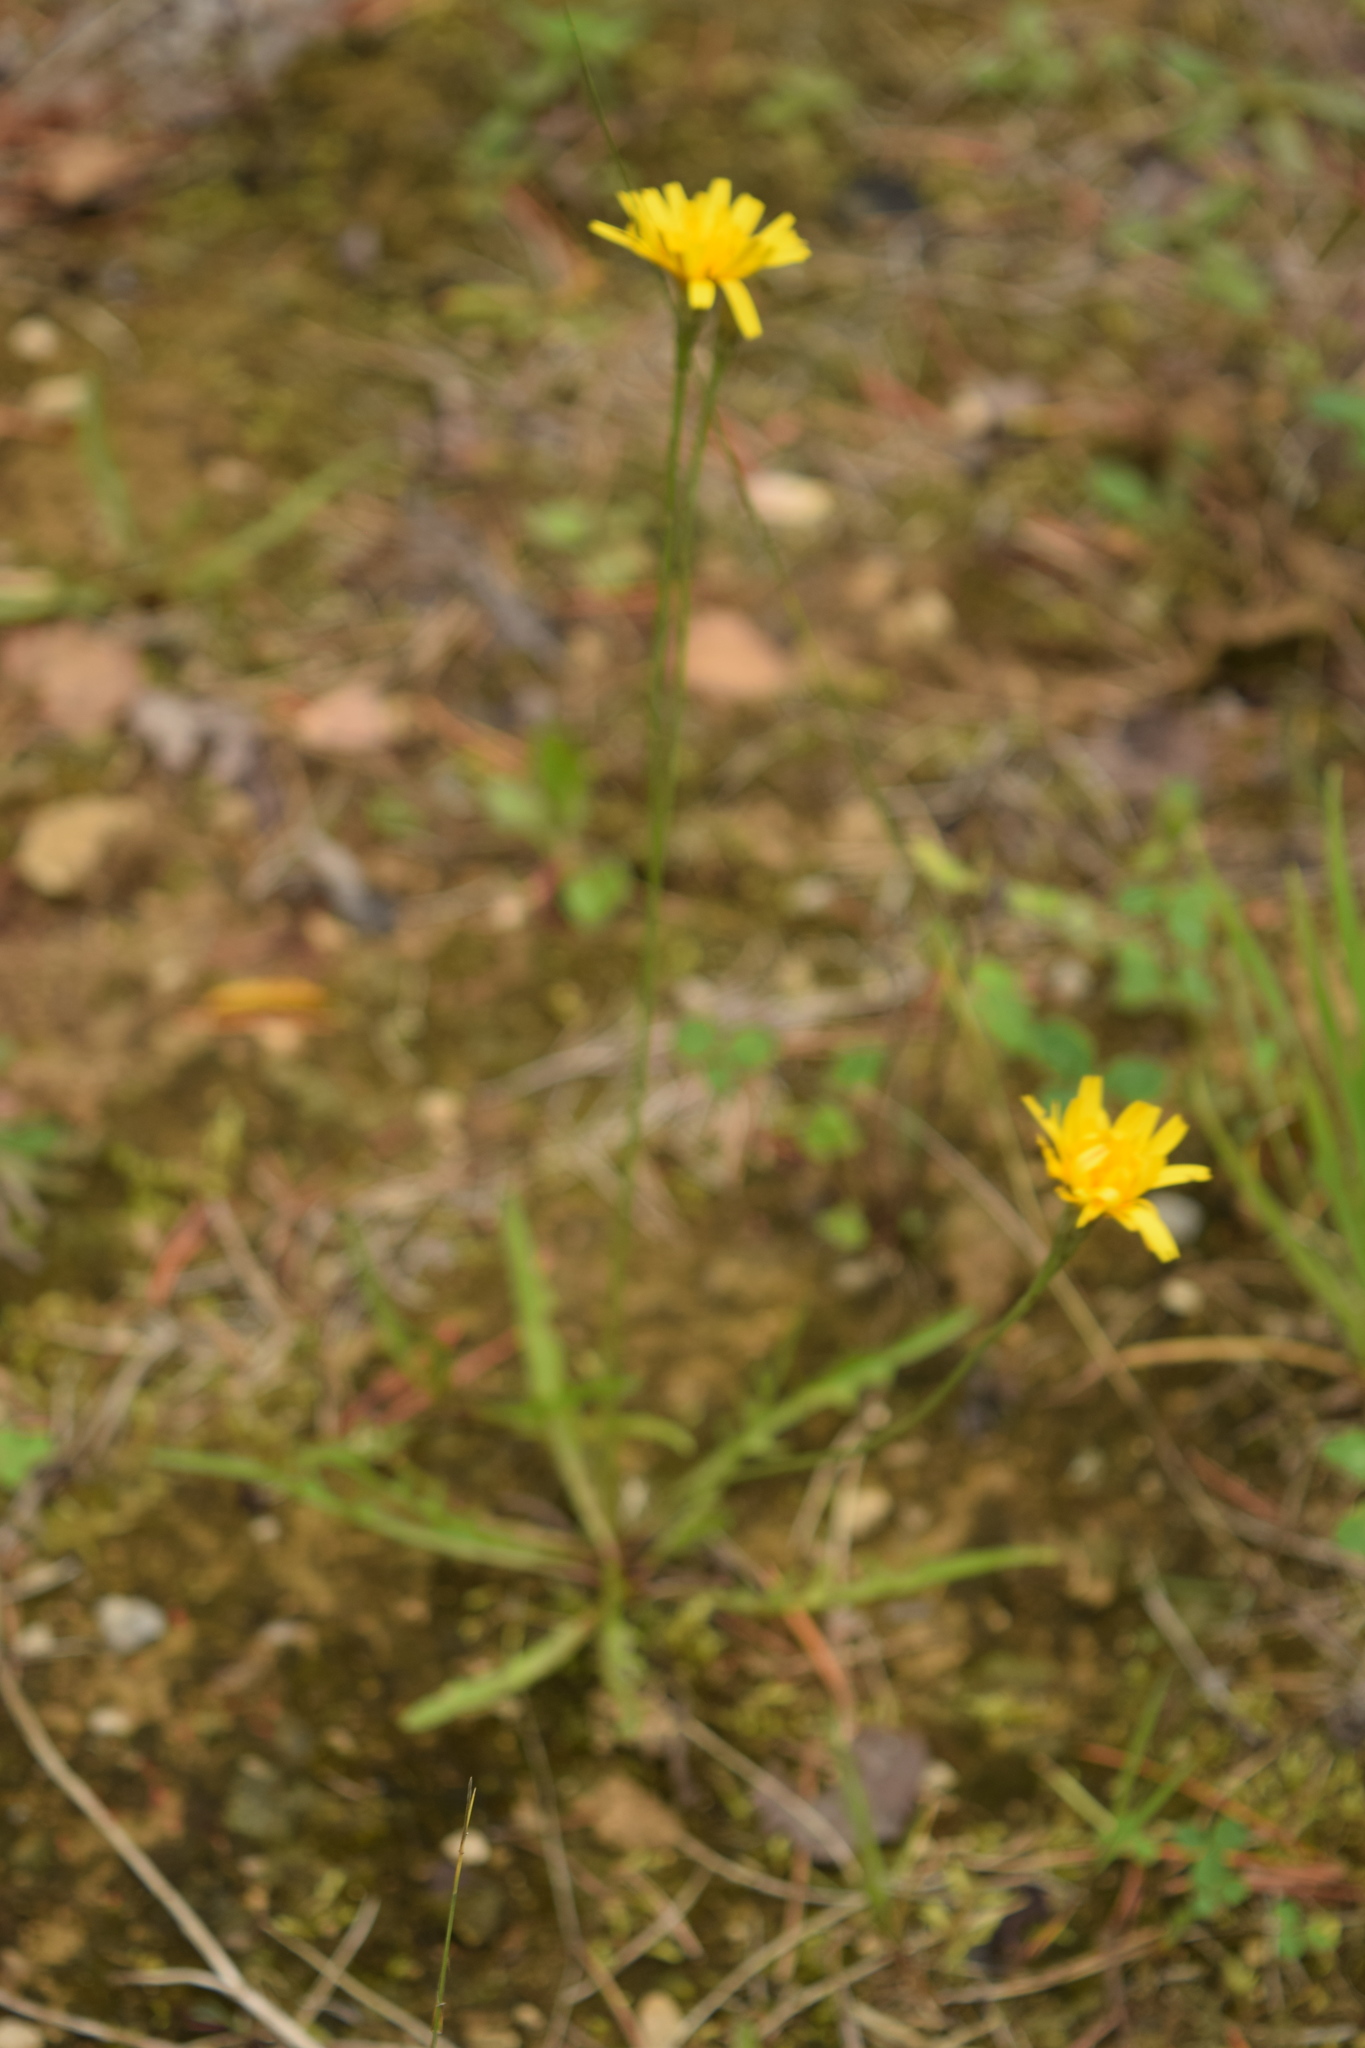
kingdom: Plantae
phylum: Tracheophyta
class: Magnoliopsida
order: Asterales
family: Asteraceae
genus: Scorzoneroides
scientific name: Scorzoneroides autumnalis
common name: Autumn hawkbit
